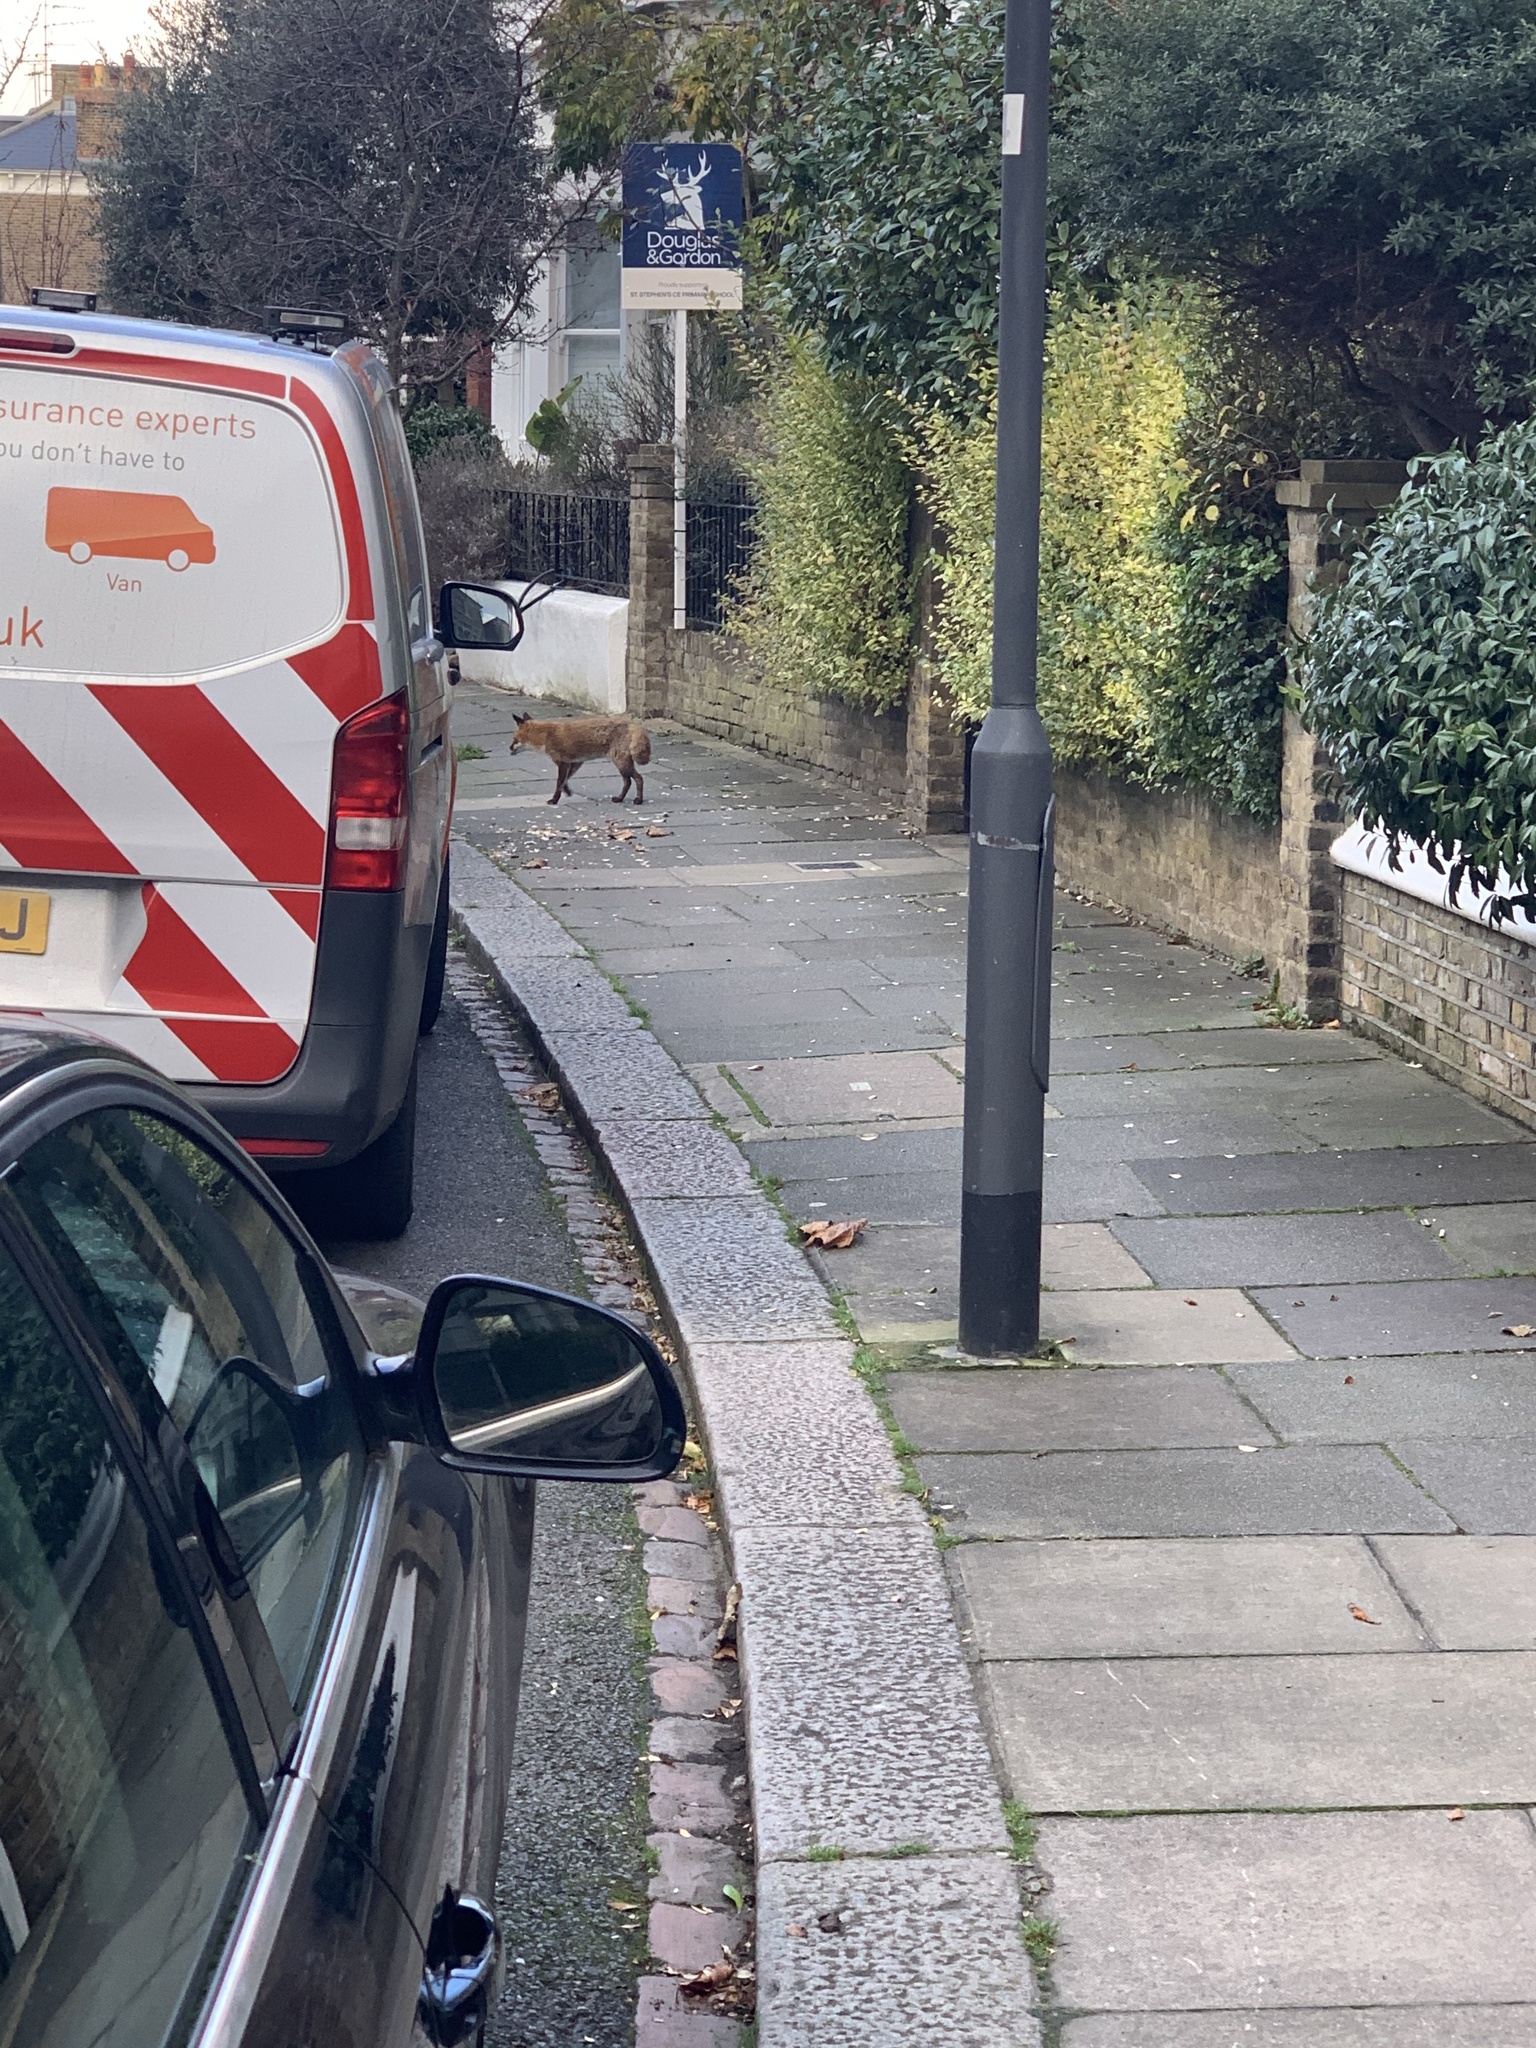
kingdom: Animalia
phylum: Chordata
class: Mammalia
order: Carnivora
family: Canidae
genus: Vulpes
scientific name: Vulpes vulpes
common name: Red fox
